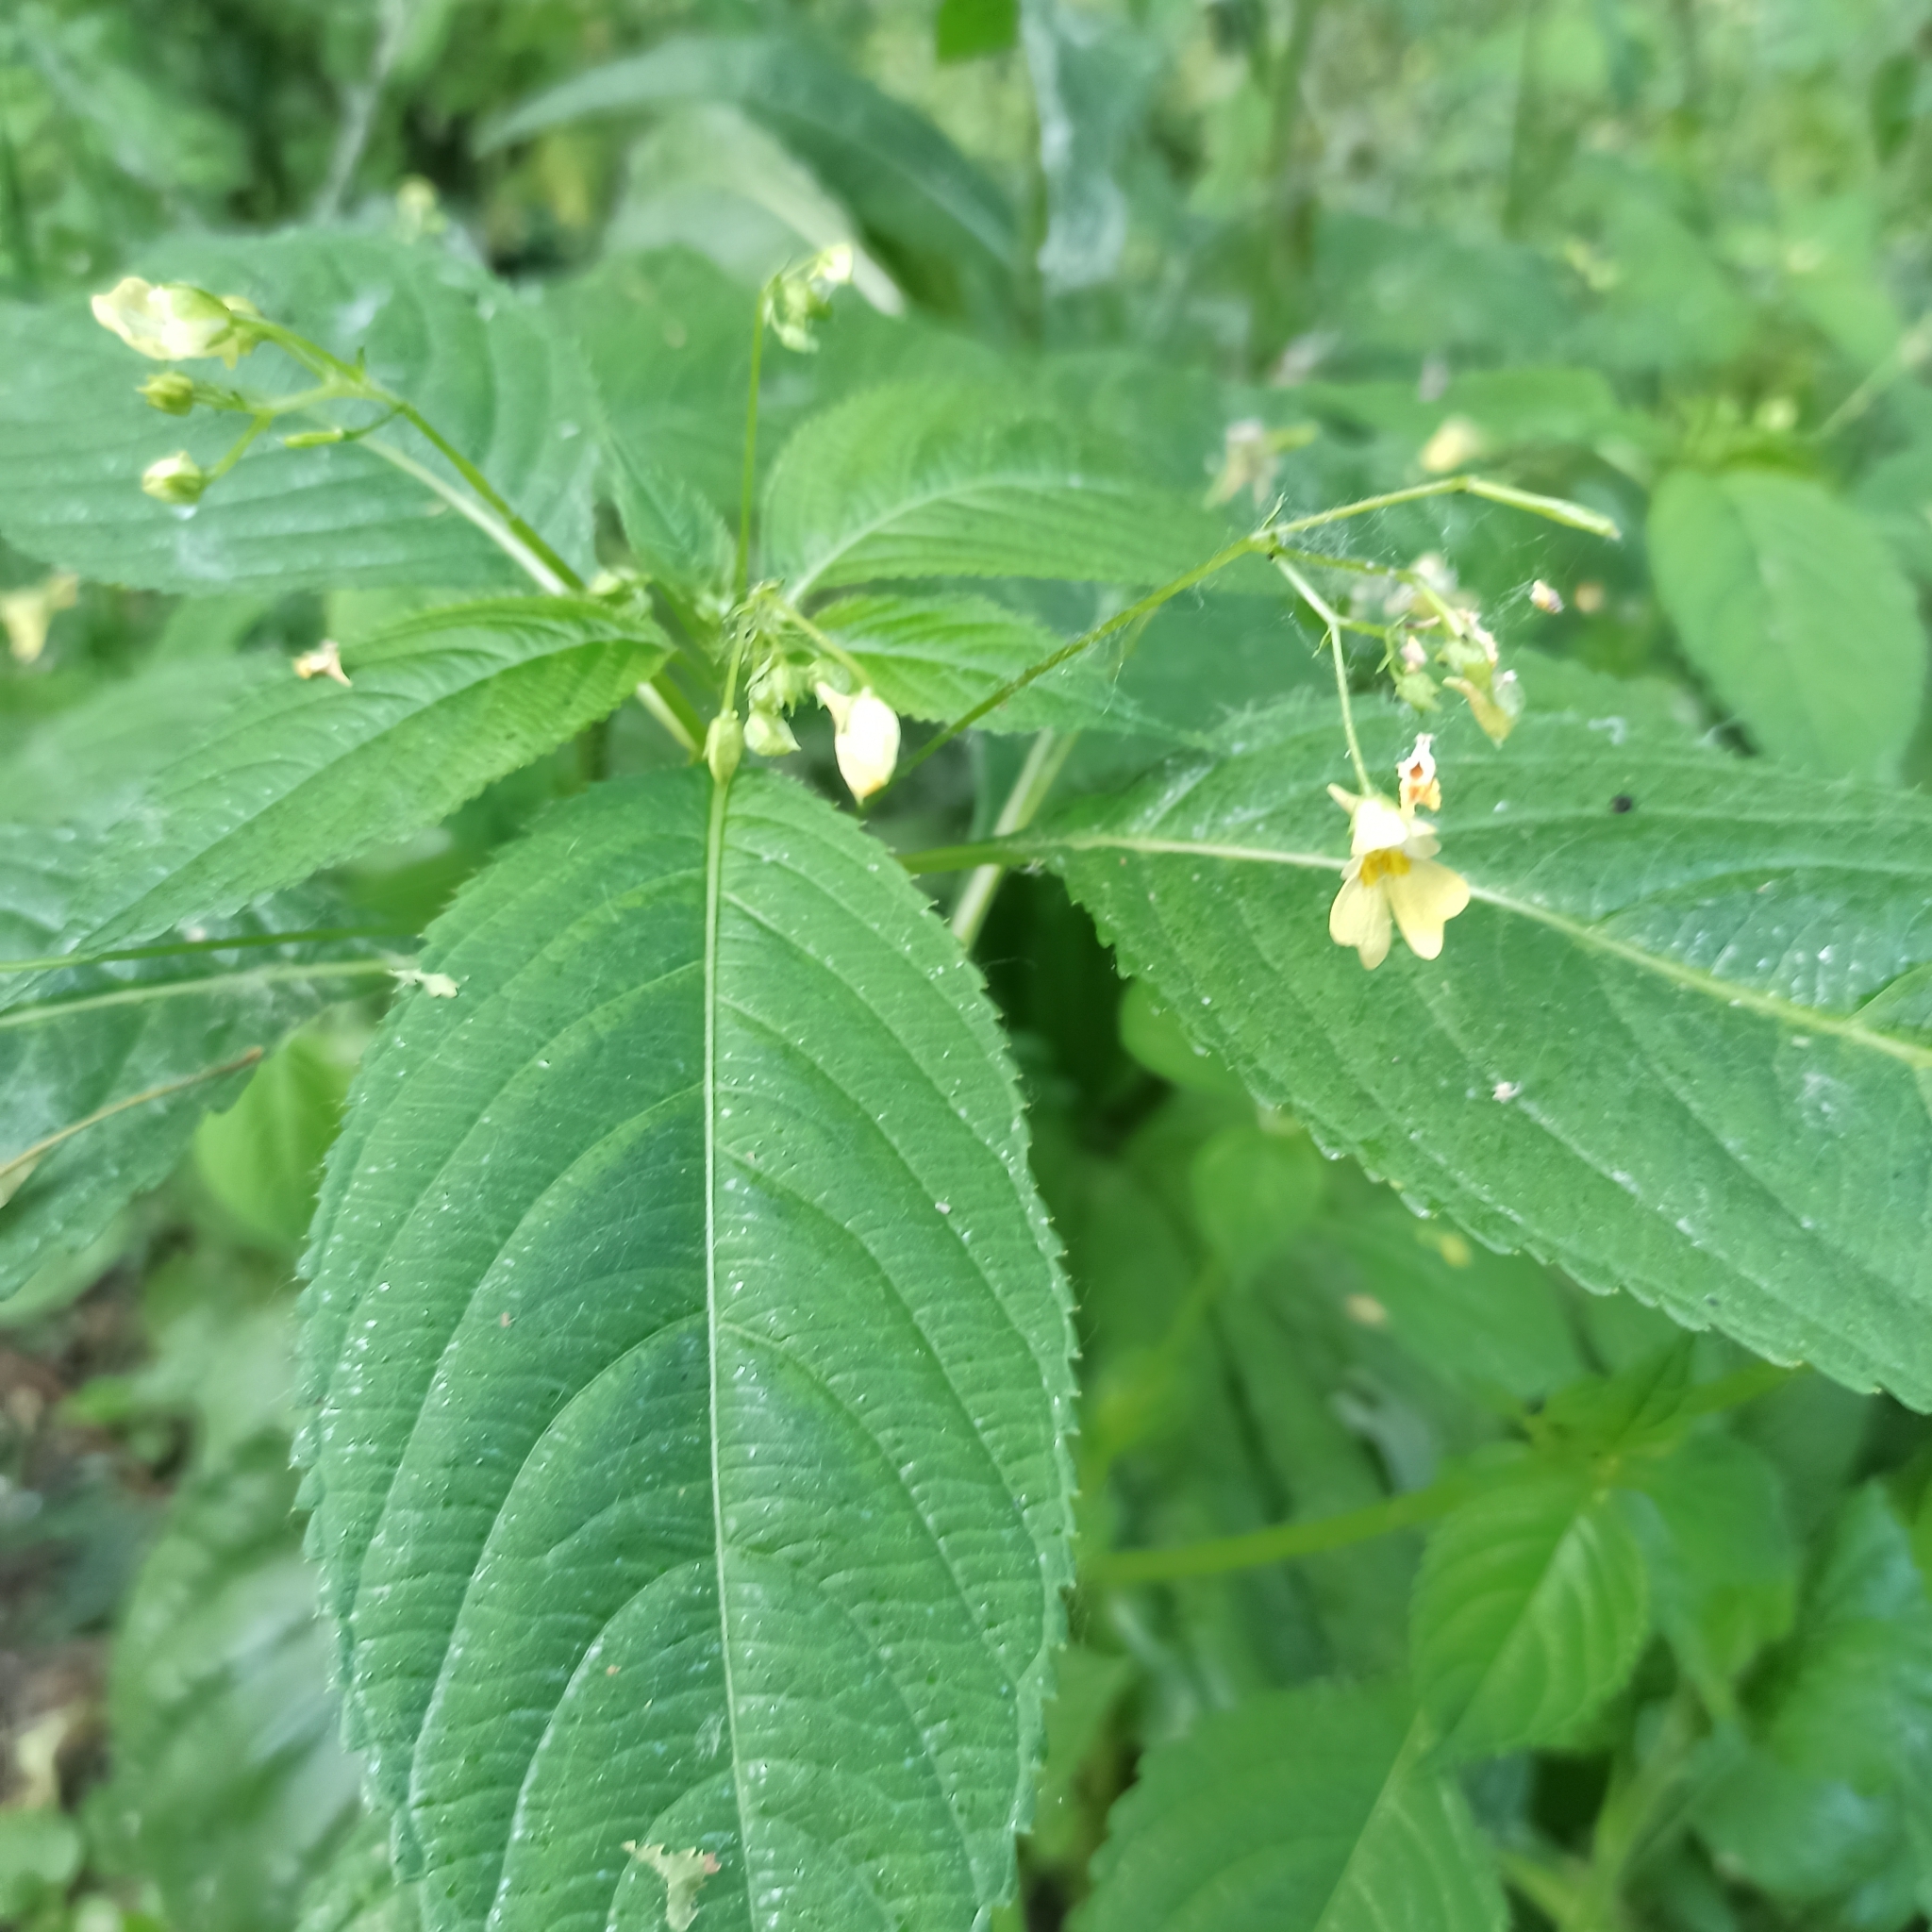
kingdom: Plantae
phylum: Tracheophyta
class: Magnoliopsida
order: Ericales
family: Balsaminaceae
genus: Impatiens
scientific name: Impatiens parviflora
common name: Small balsam
